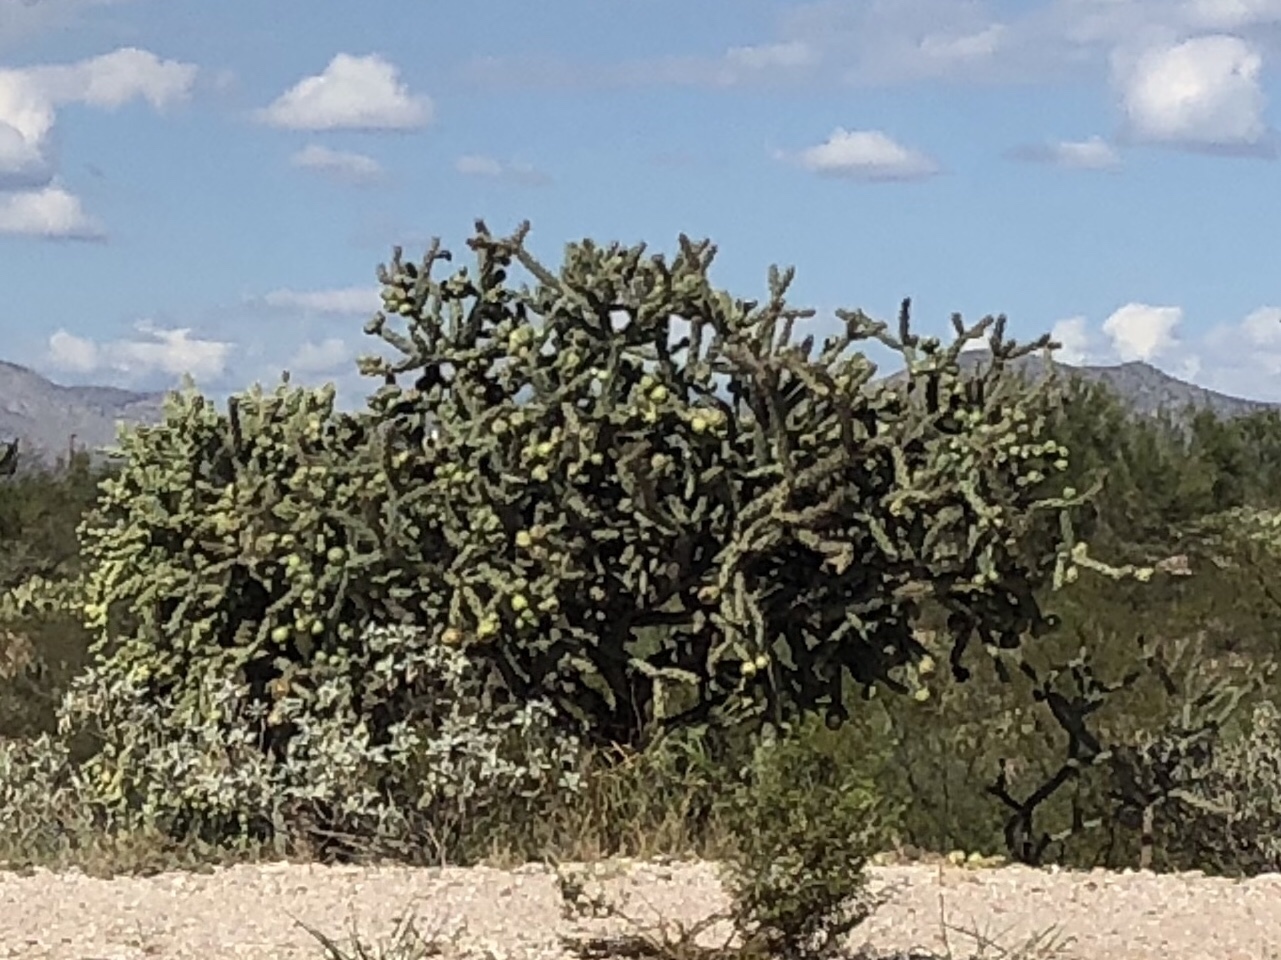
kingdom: Plantae
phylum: Tracheophyta
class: Magnoliopsida
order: Caryophyllales
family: Cactaceae
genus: Cylindropuntia
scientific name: Cylindropuntia imbricata
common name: Candelabrum cactus
